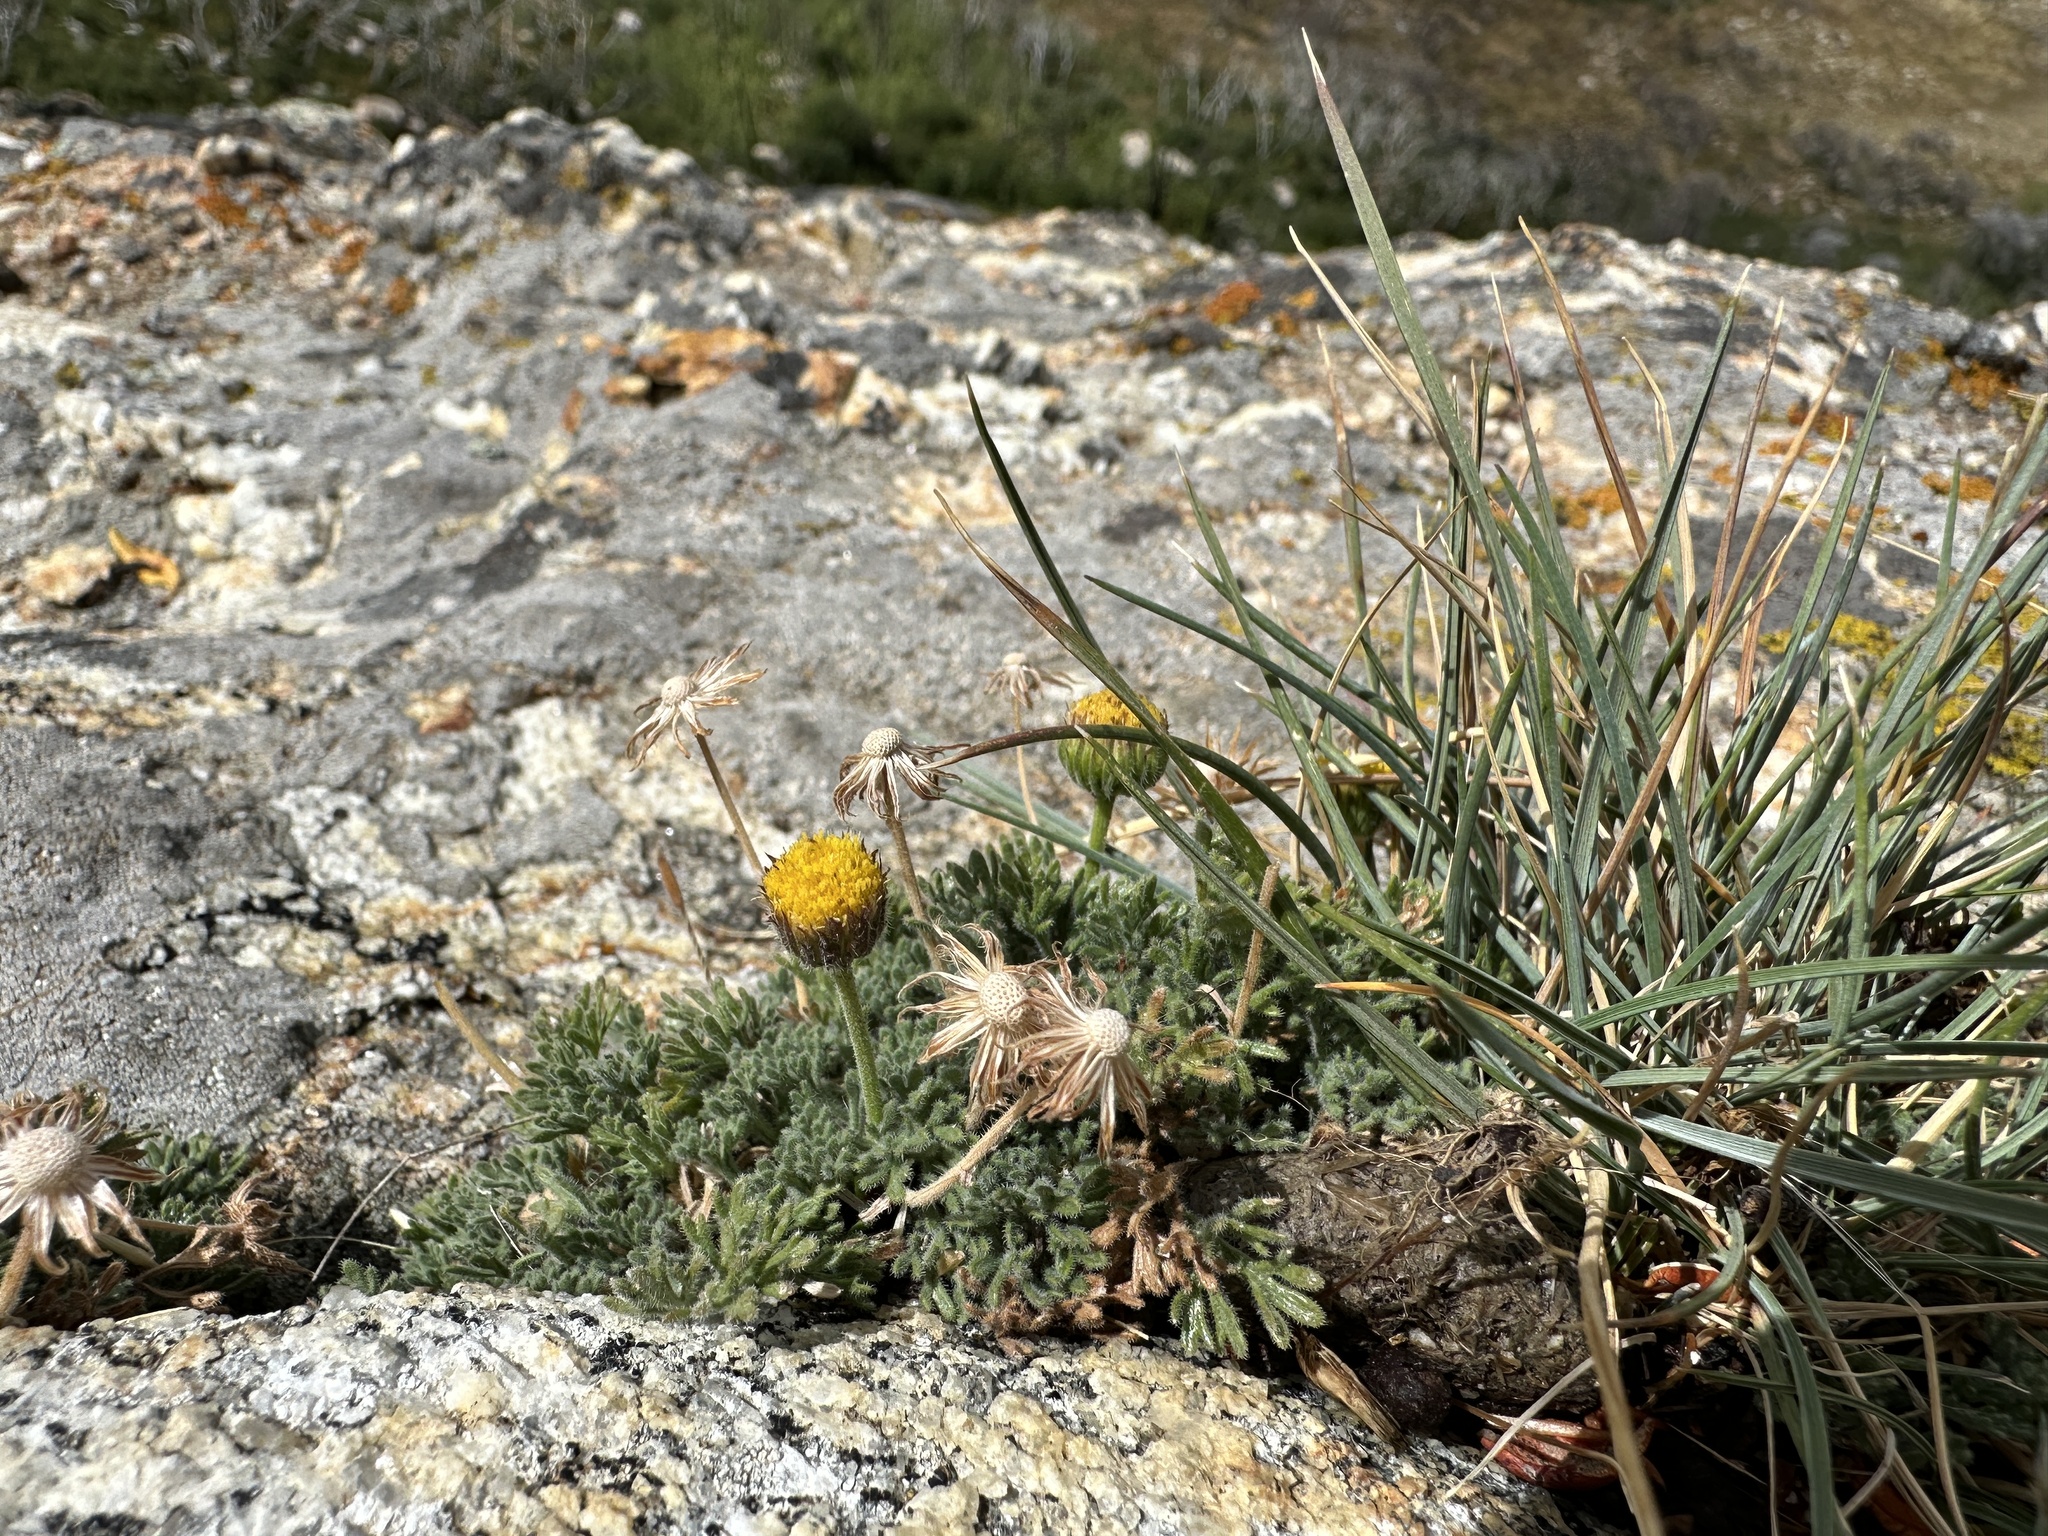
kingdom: Plantae
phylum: Tracheophyta
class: Magnoliopsida
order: Asterales
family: Asteraceae
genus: Erigeron
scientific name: Erigeron compositus
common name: Dwarf mountain fleabane
